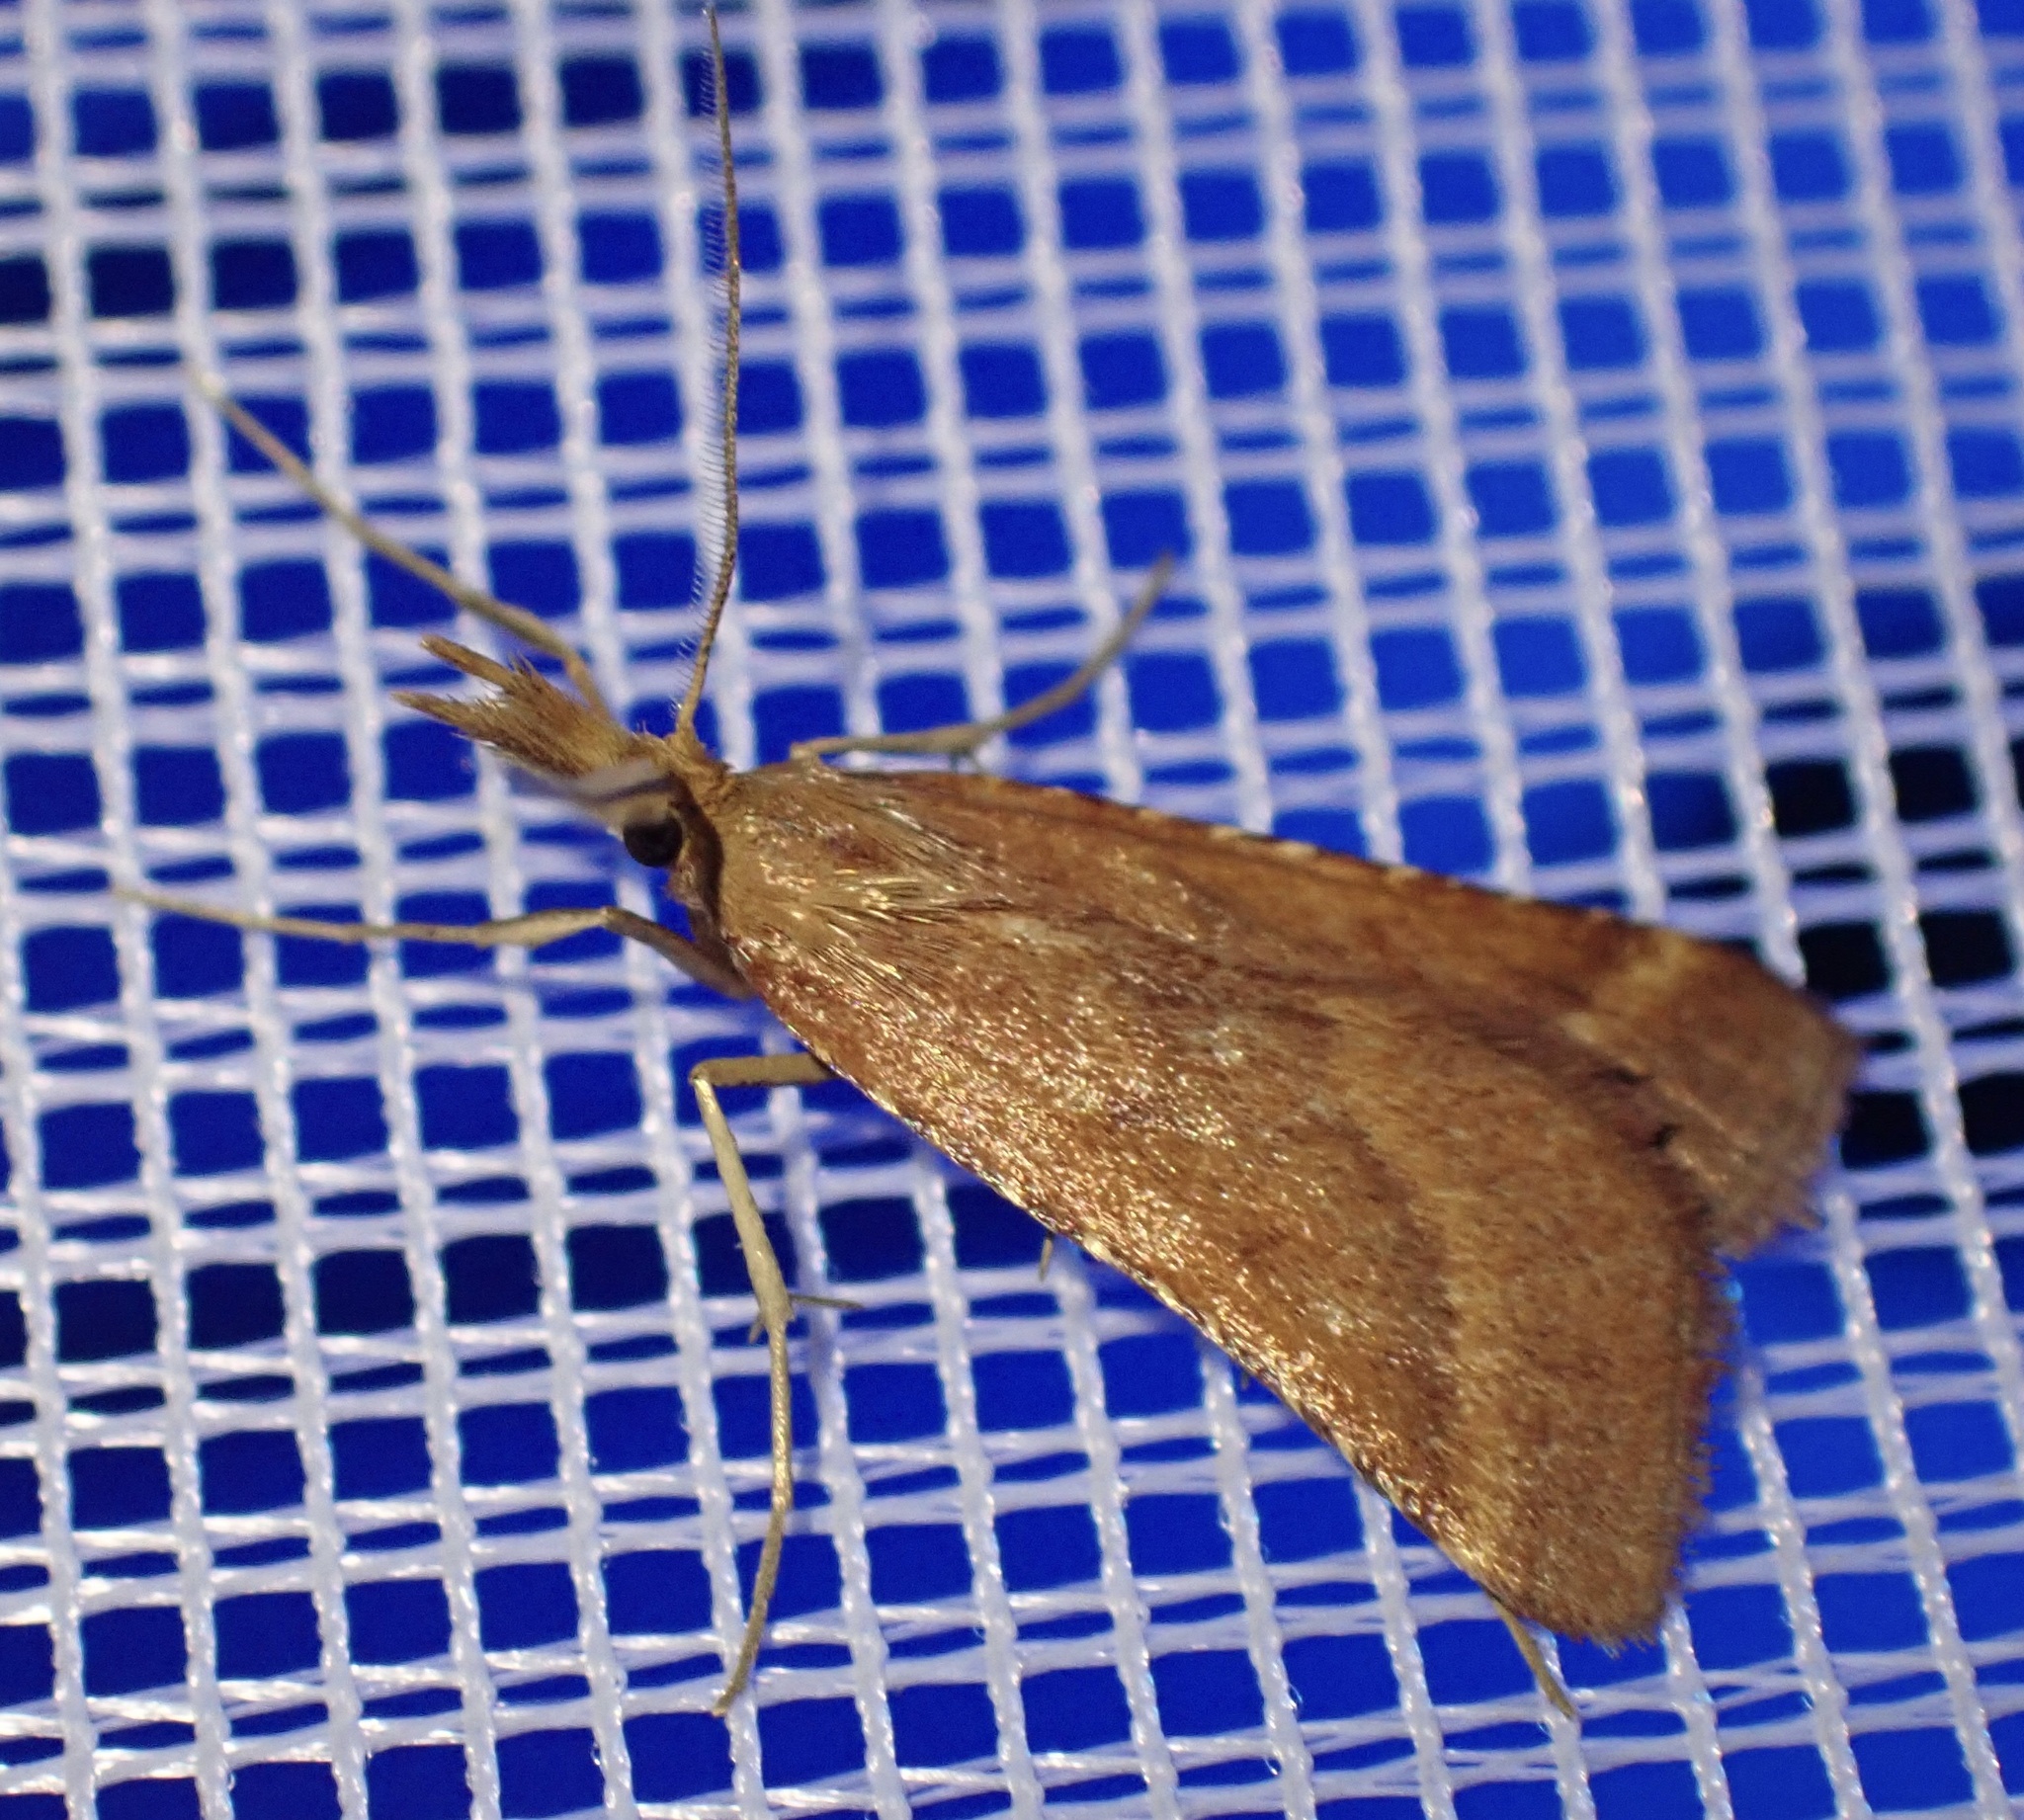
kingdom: Animalia
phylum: Arthropoda
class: Insecta
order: Lepidoptera
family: Pyralidae
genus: Synaphe
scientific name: Synaphe punctalis
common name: Long-legged tabby
